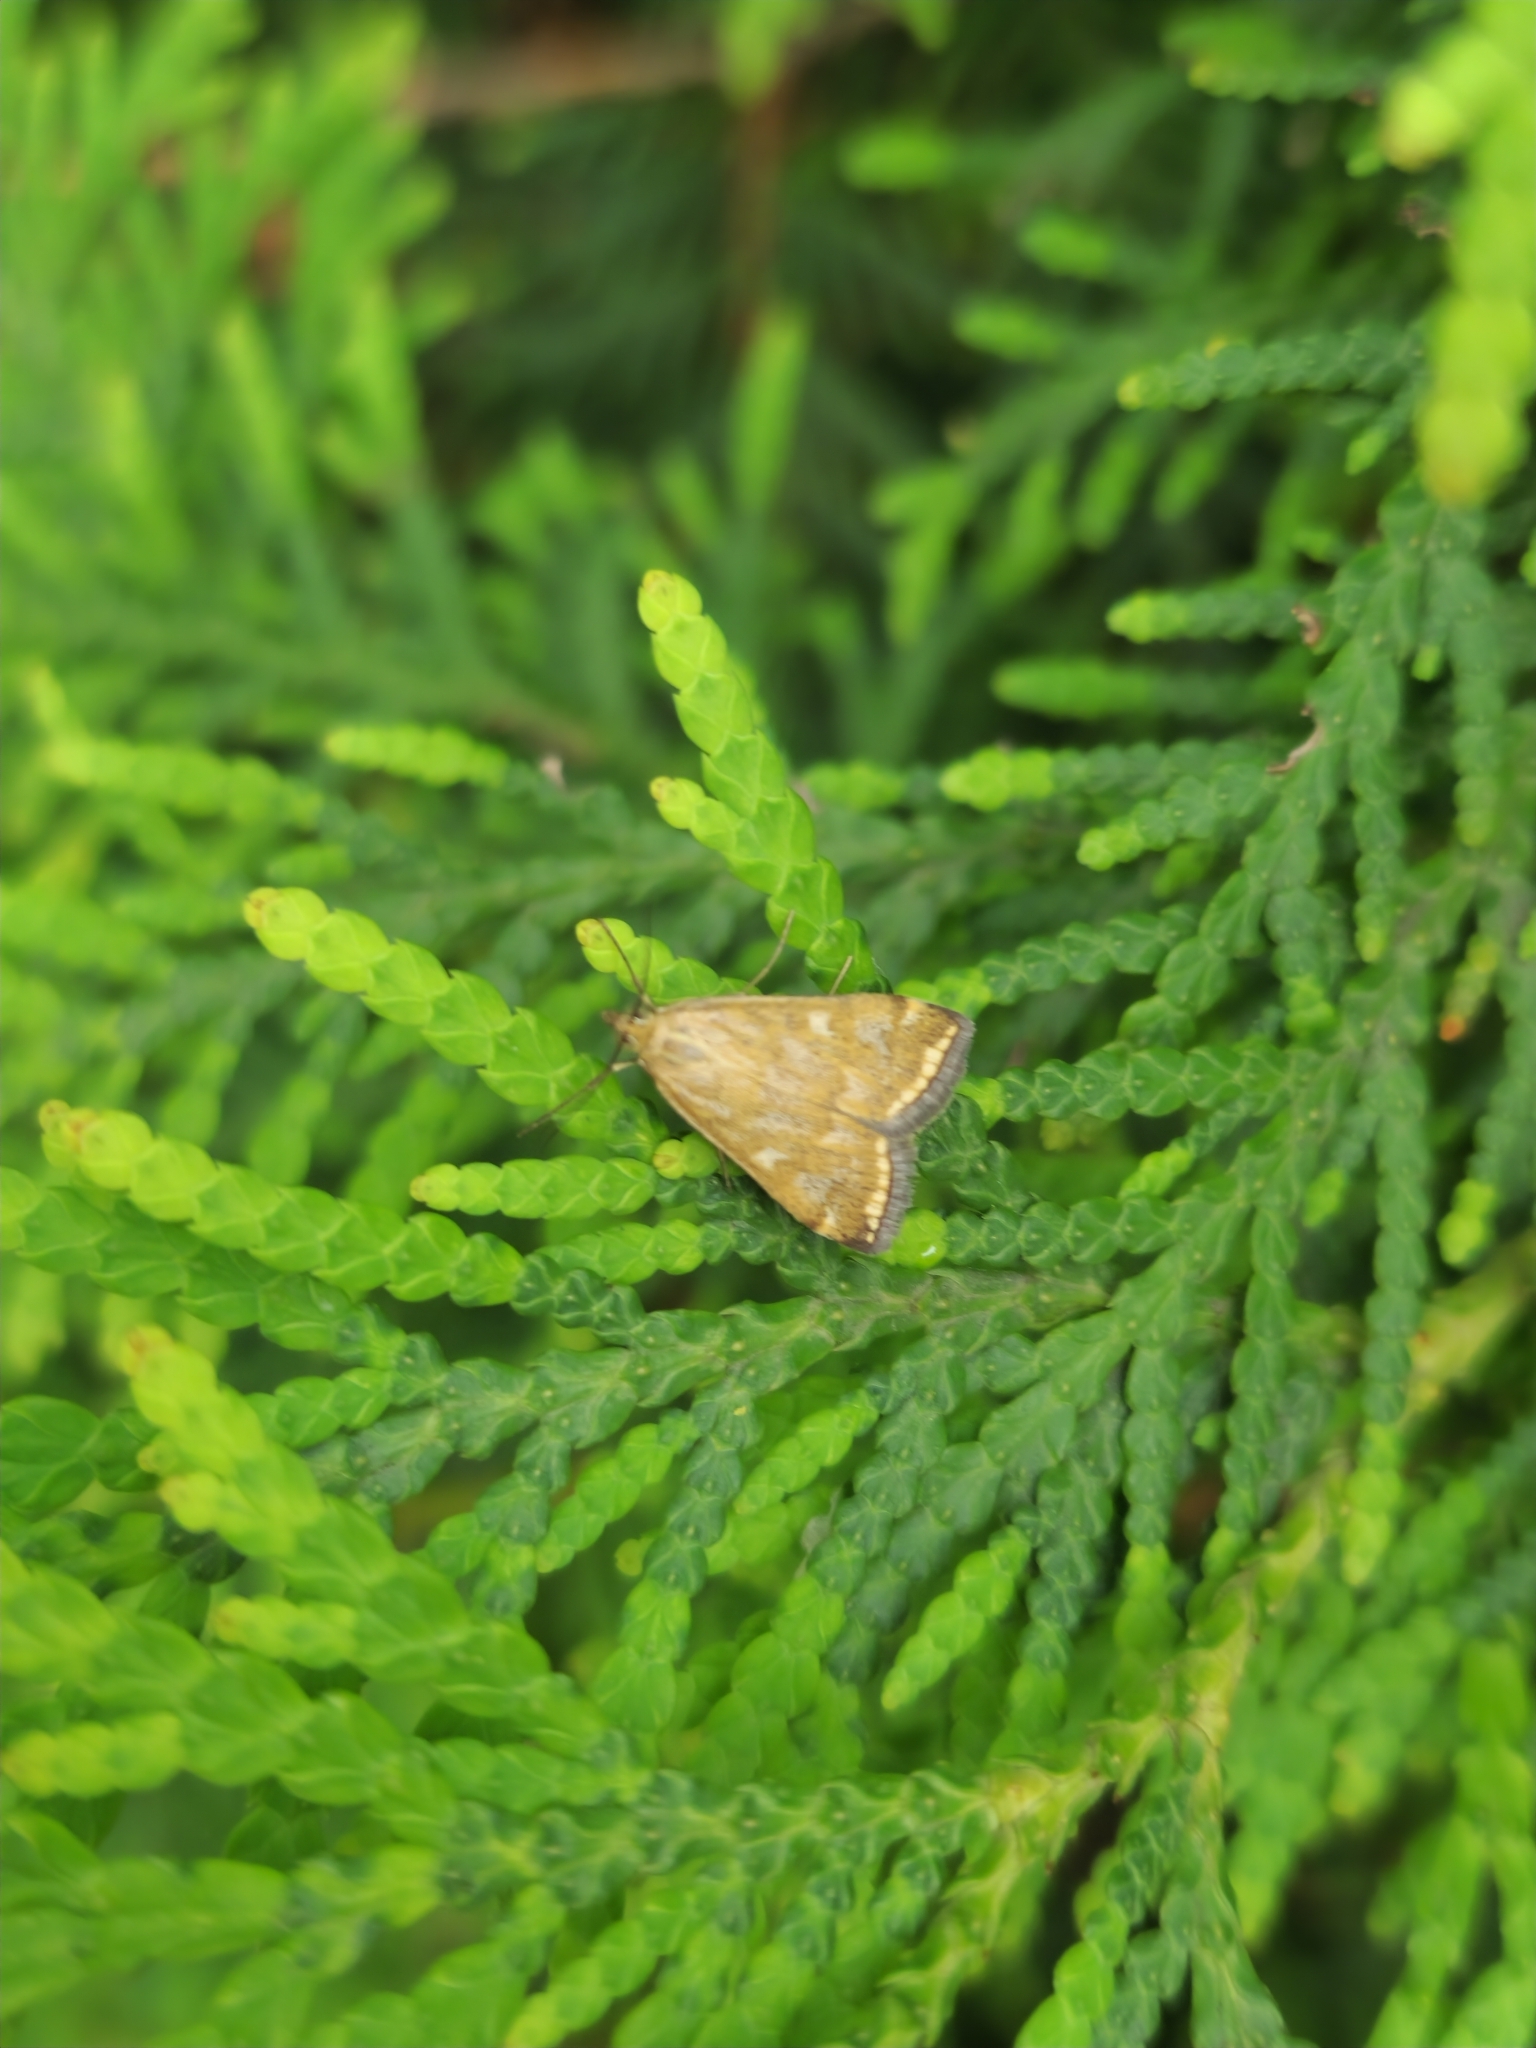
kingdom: Animalia
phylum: Arthropoda
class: Insecta
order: Lepidoptera
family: Crambidae
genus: Loxostege
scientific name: Loxostege sticticalis
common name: Crambid moth
